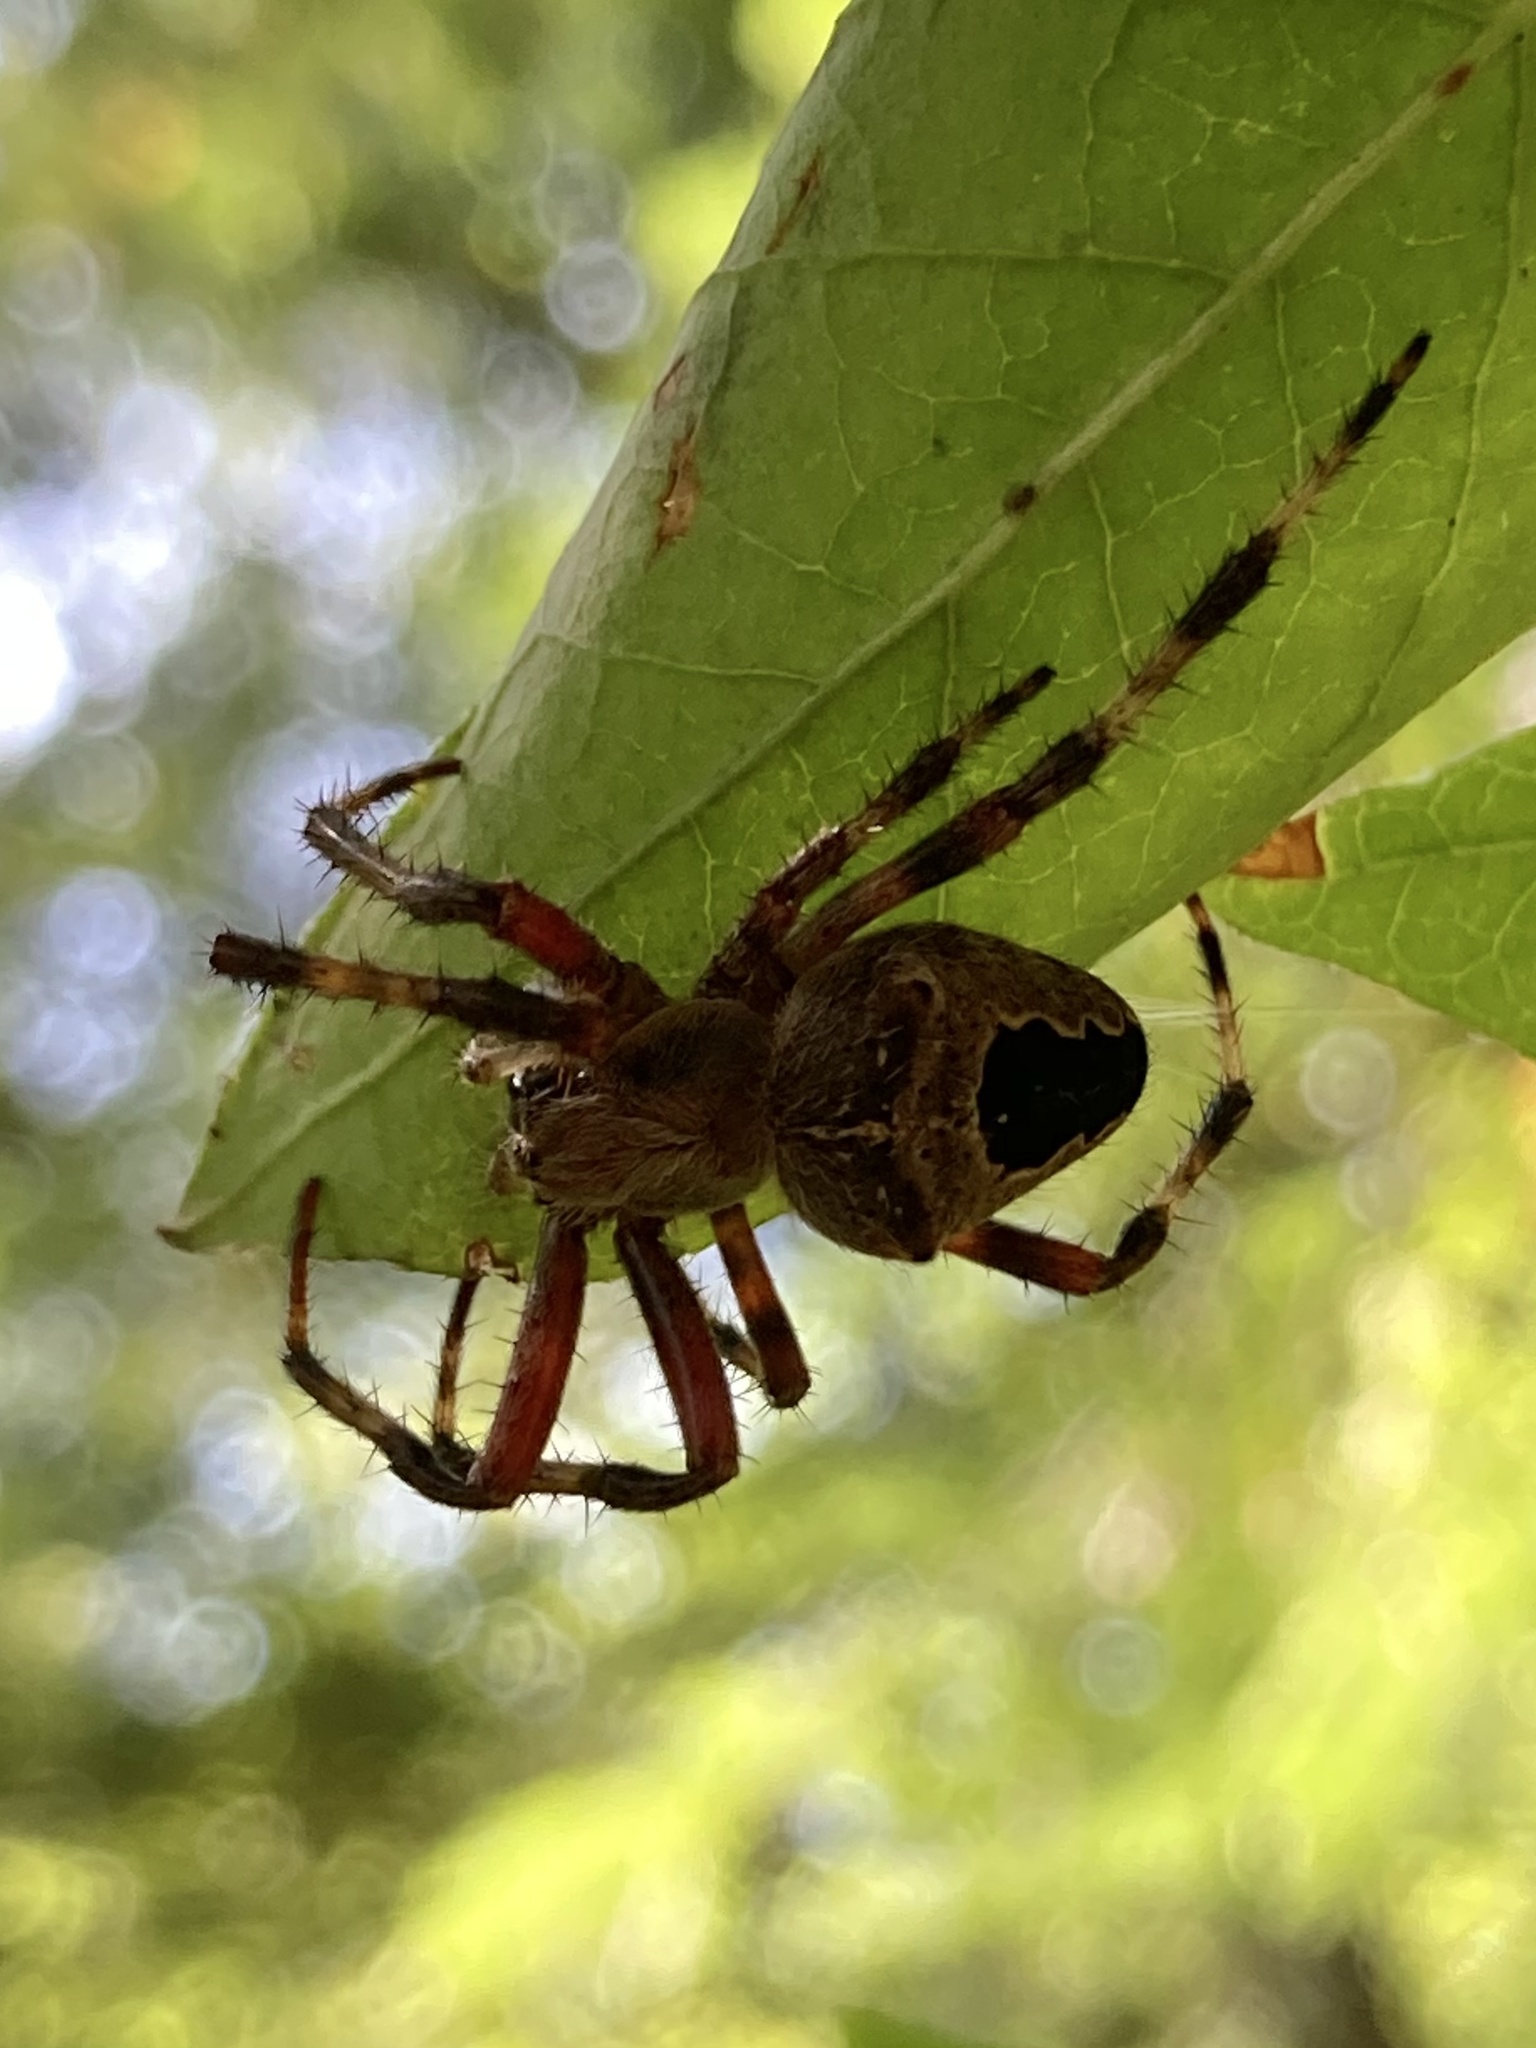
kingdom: Animalia
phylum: Arthropoda
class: Arachnida
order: Araneae
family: Araneidae
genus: Araneus
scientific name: Araneus nordmanni
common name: Nordmann's orbweaver
